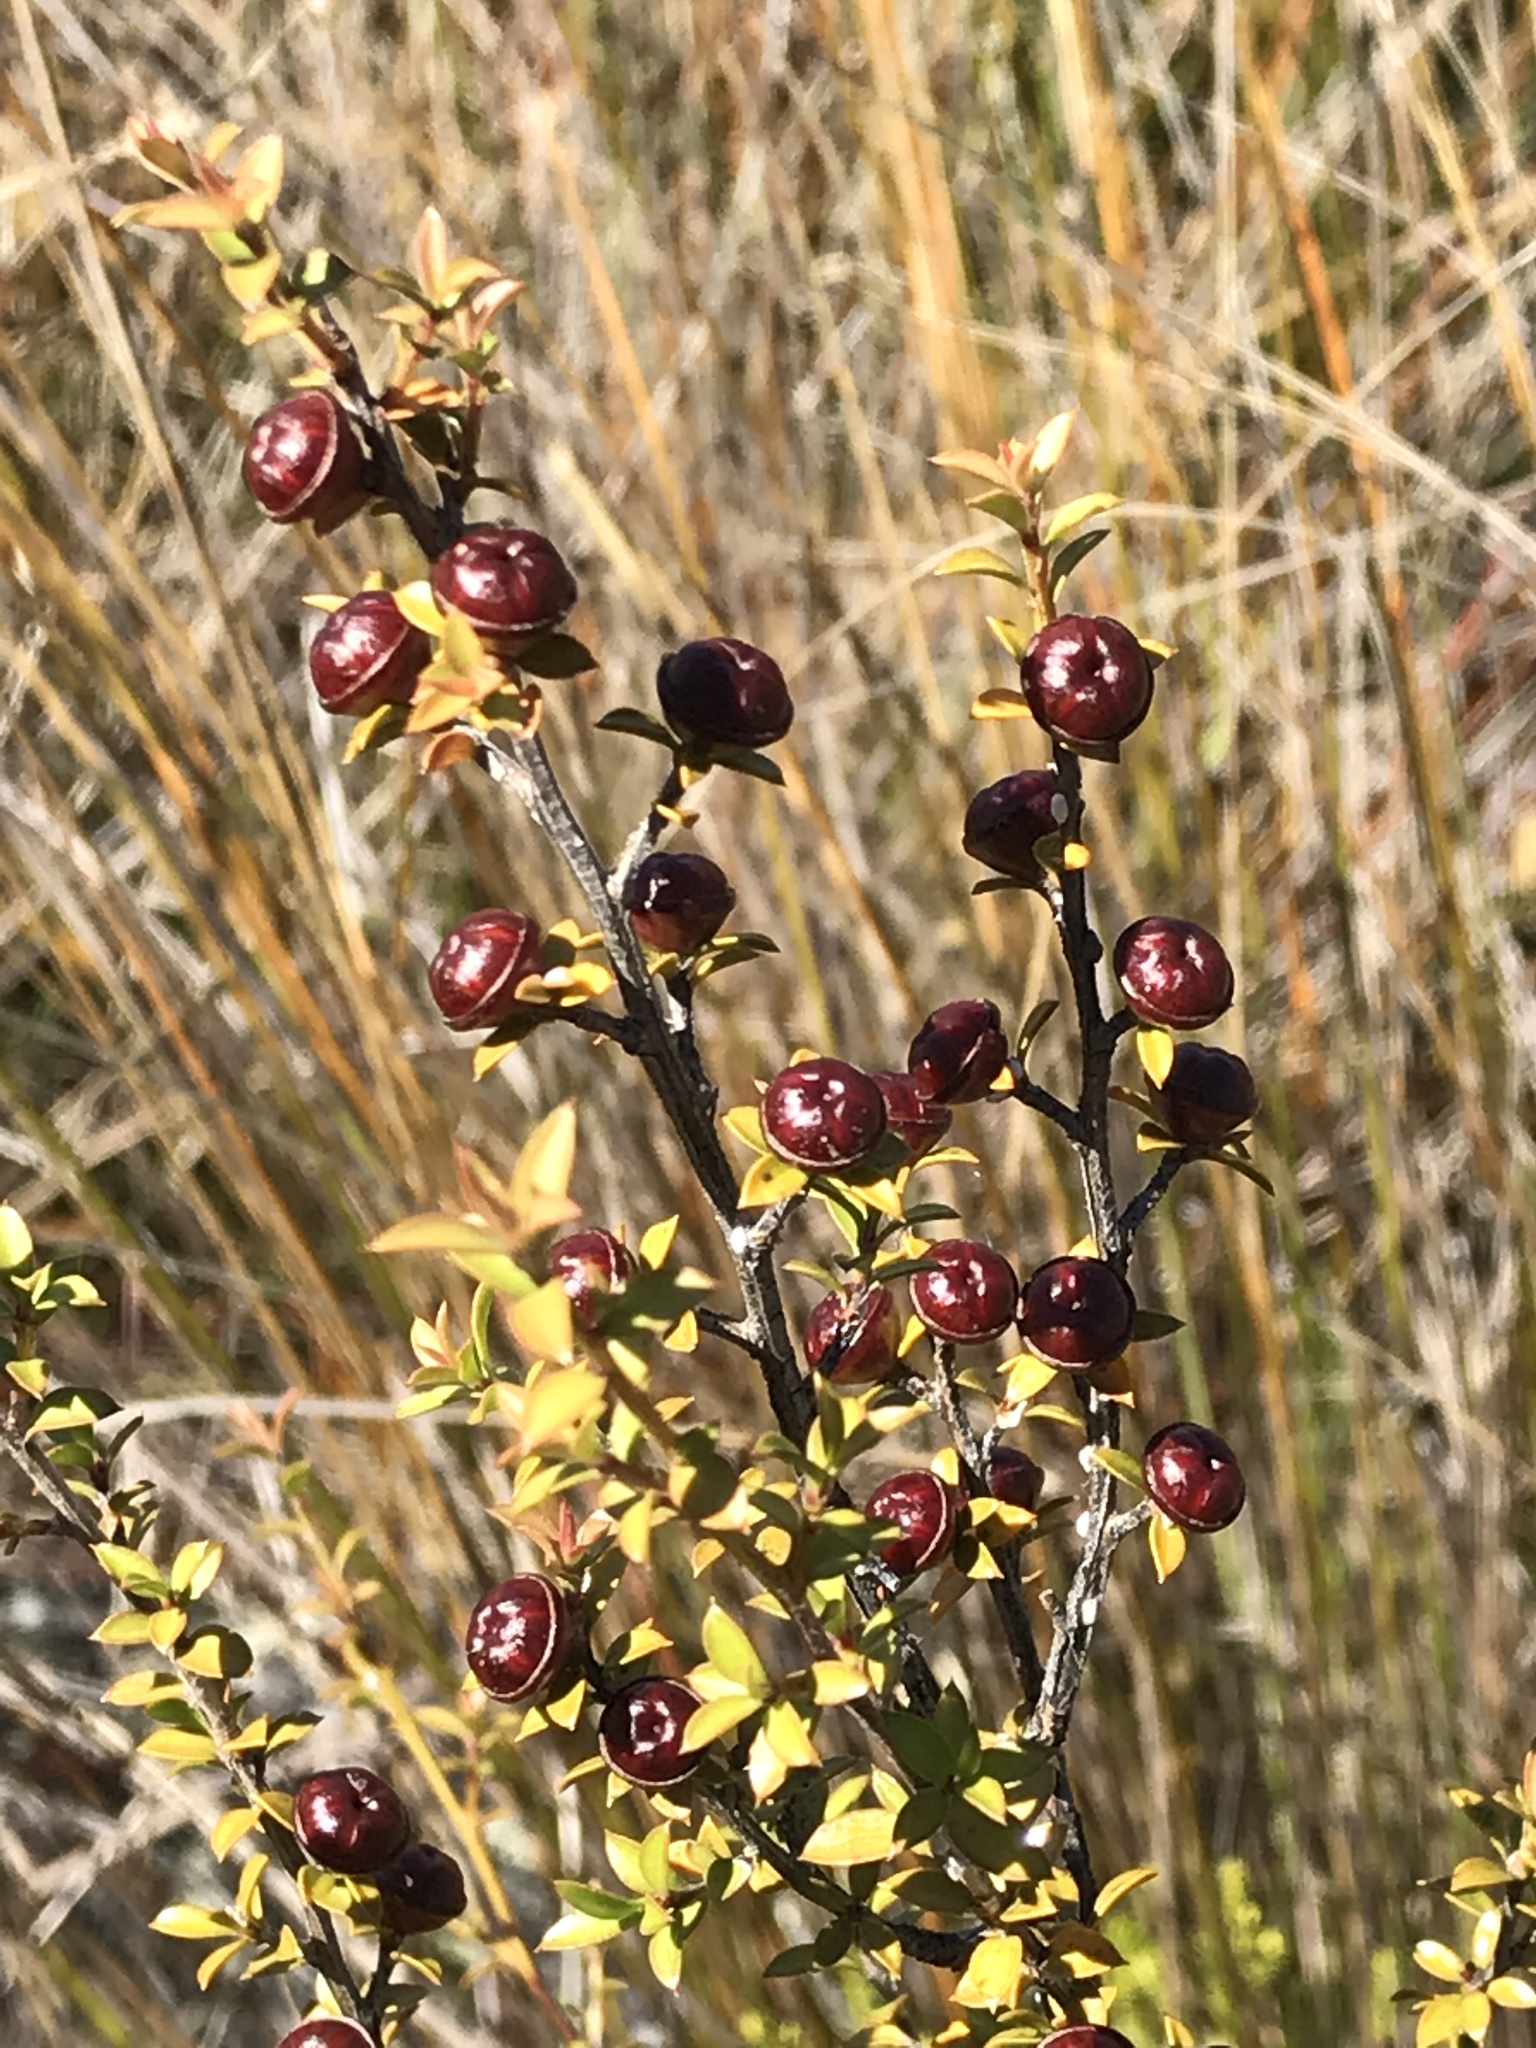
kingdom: Plantae
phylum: Tracheophyta
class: Magnoliopsida
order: Myrtales
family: Myrtaceae
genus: Leptospermum
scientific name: Leptospermum scoparium
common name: Broom tea-tree
